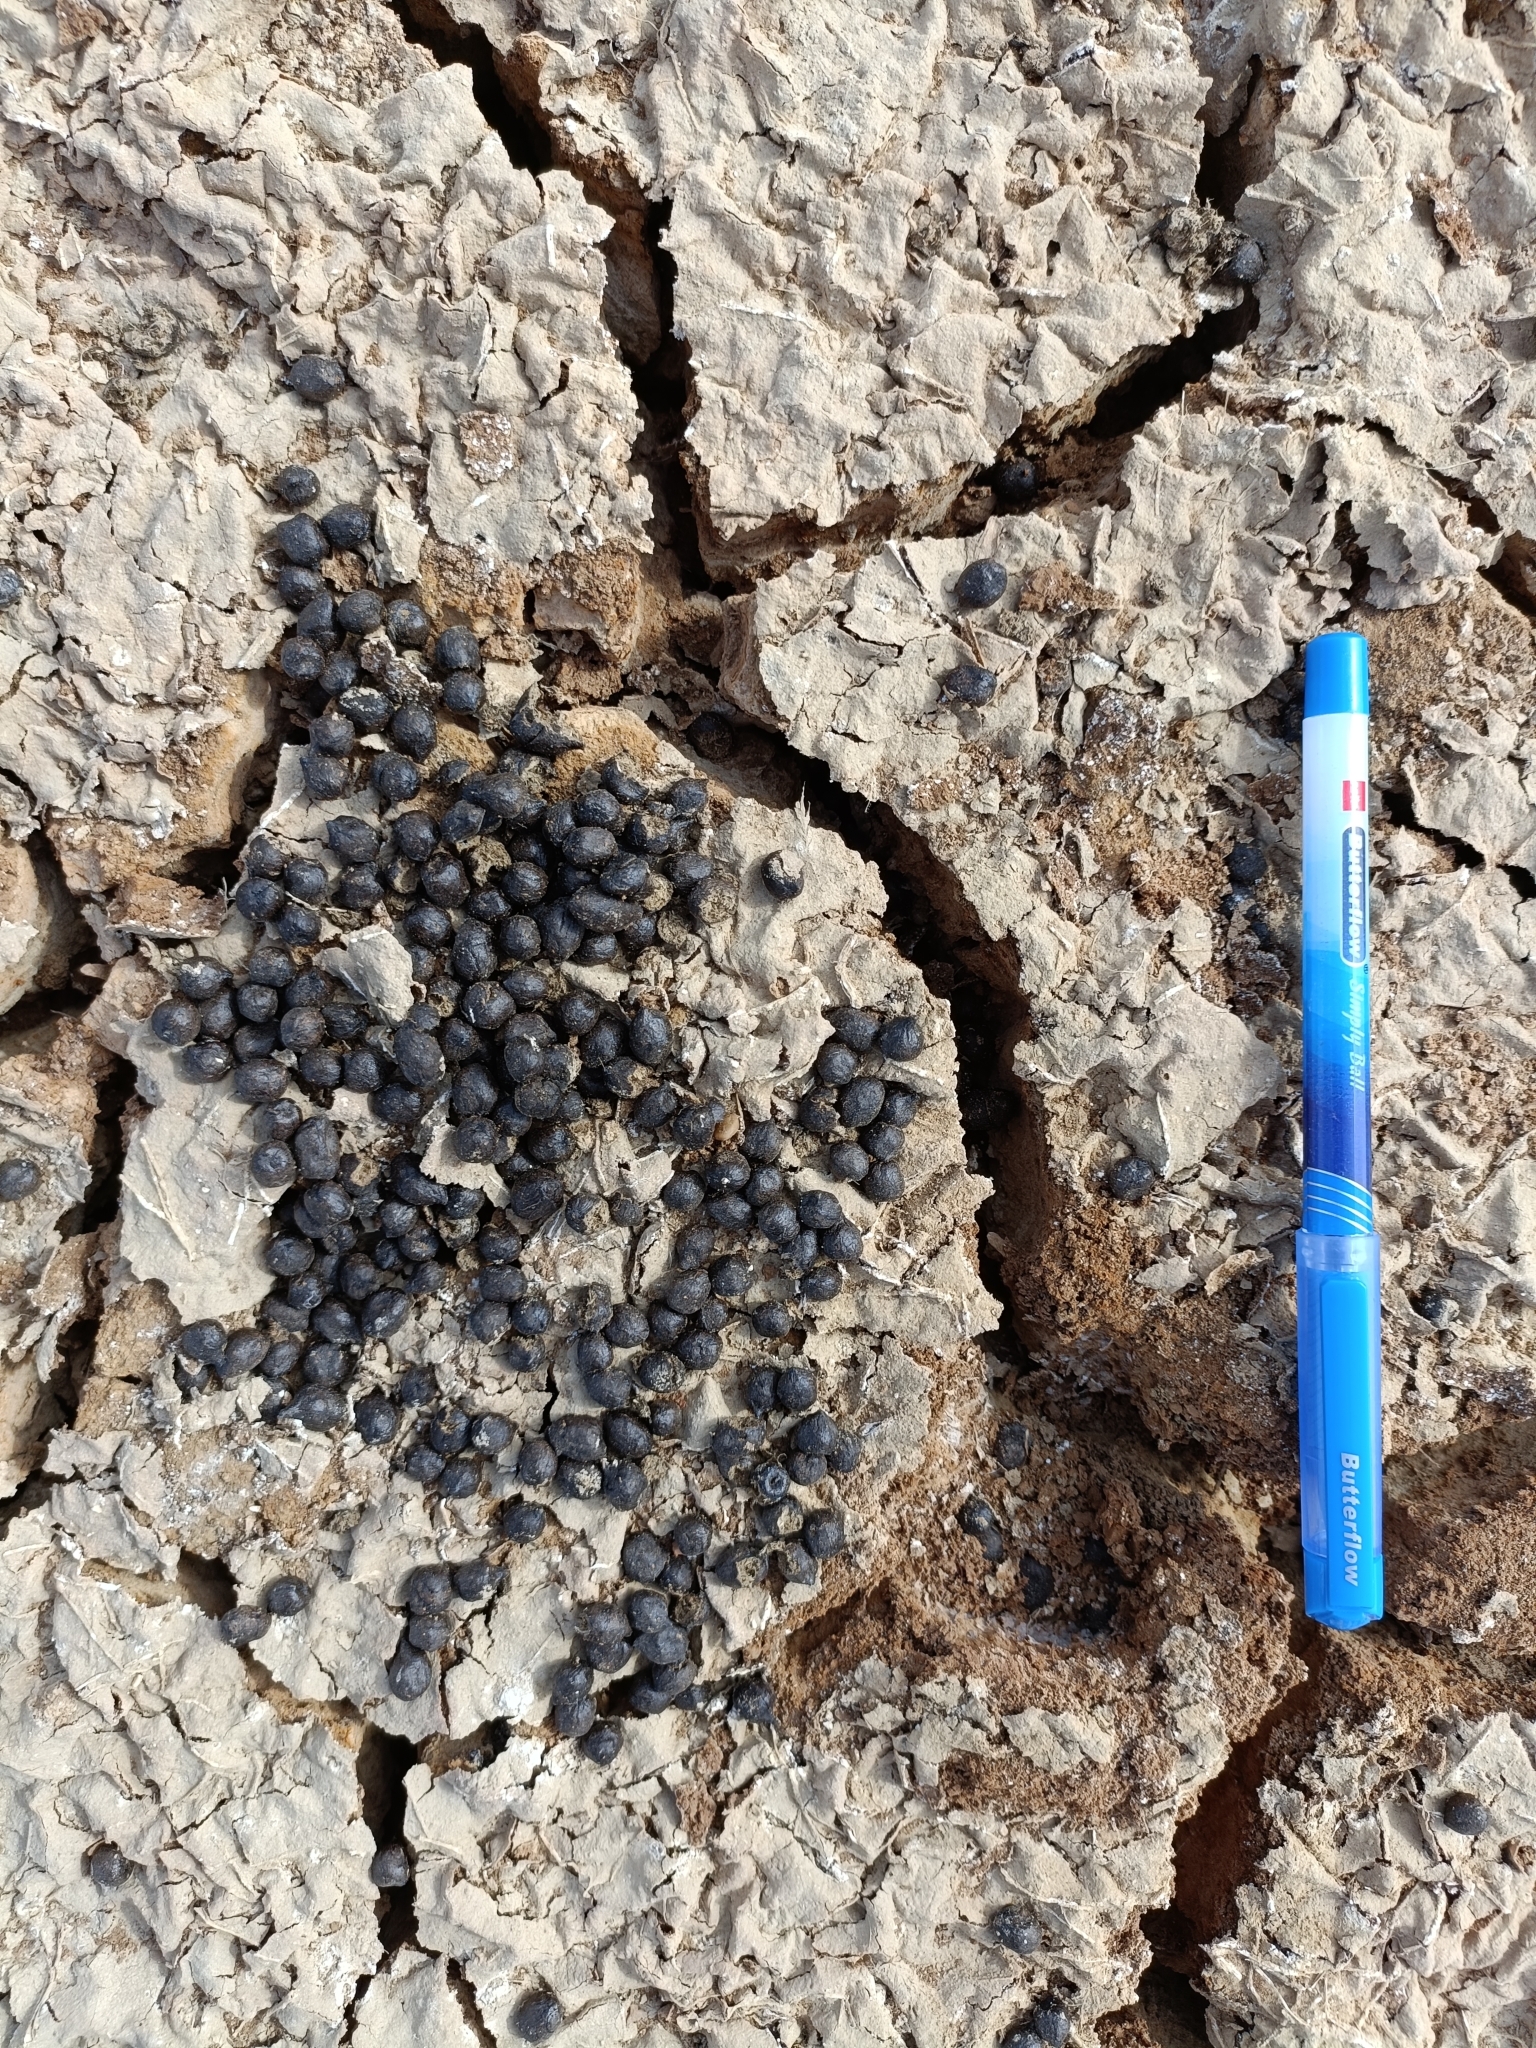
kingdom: Animalia
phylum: Chordata
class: Mammalia
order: Artiodactyla
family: Bovidae
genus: Gazella
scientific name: Gazella bennettii
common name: Indian gazelle
